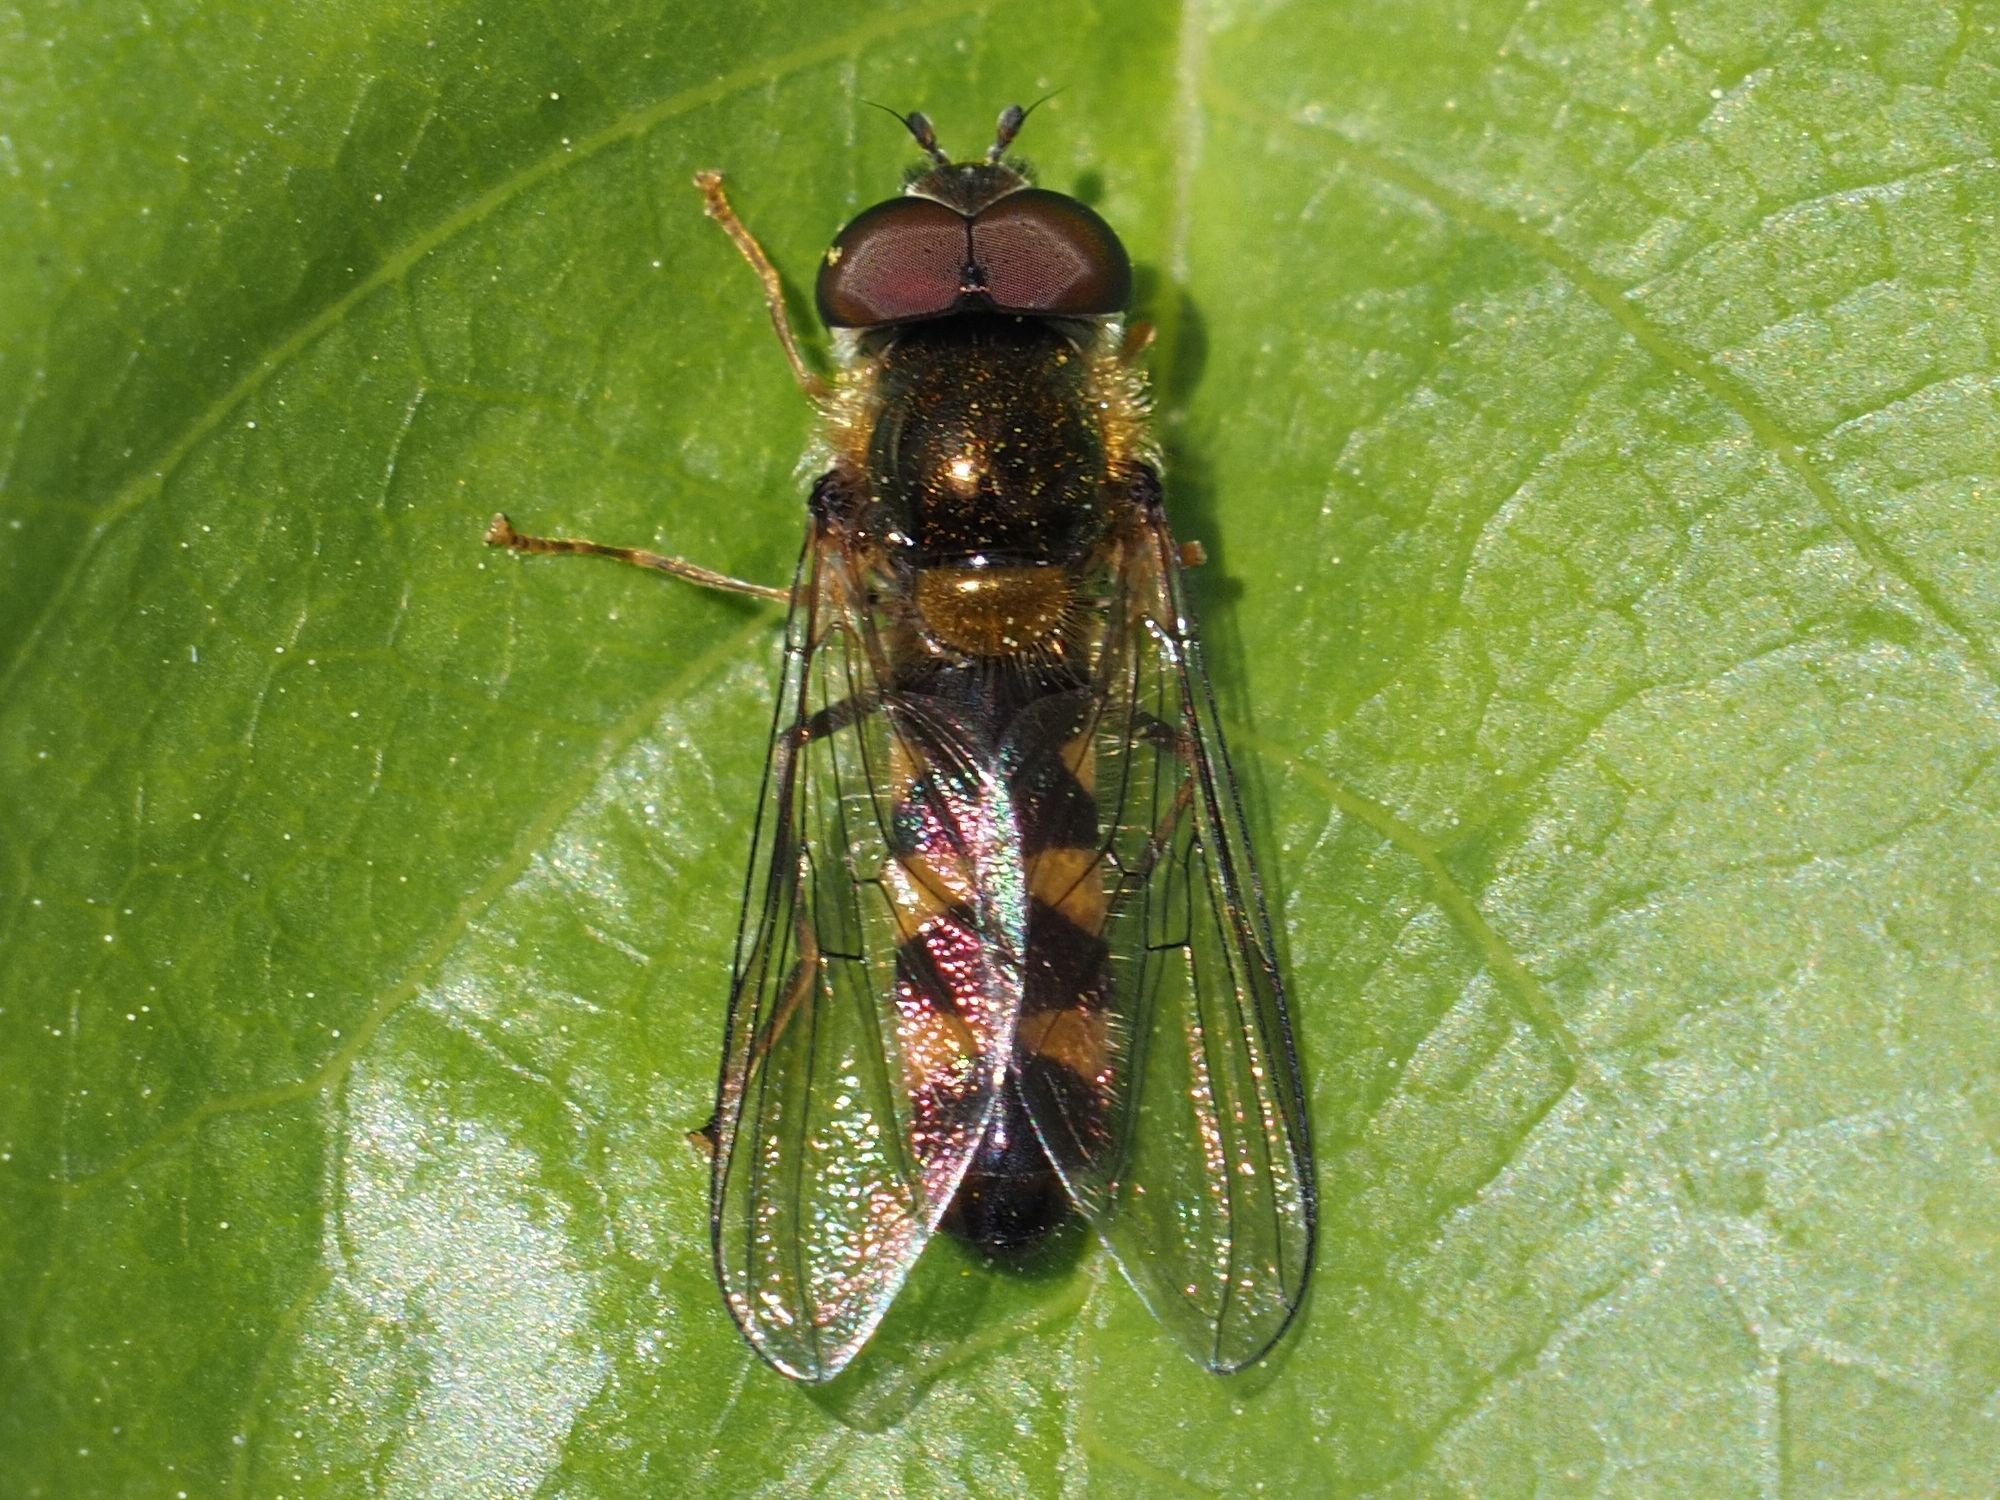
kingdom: Animalia
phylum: Arthropoda
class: Insecta
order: Diptera
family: Syrphidae
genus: Meliscaeva
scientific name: Meliscaeva auricollis
